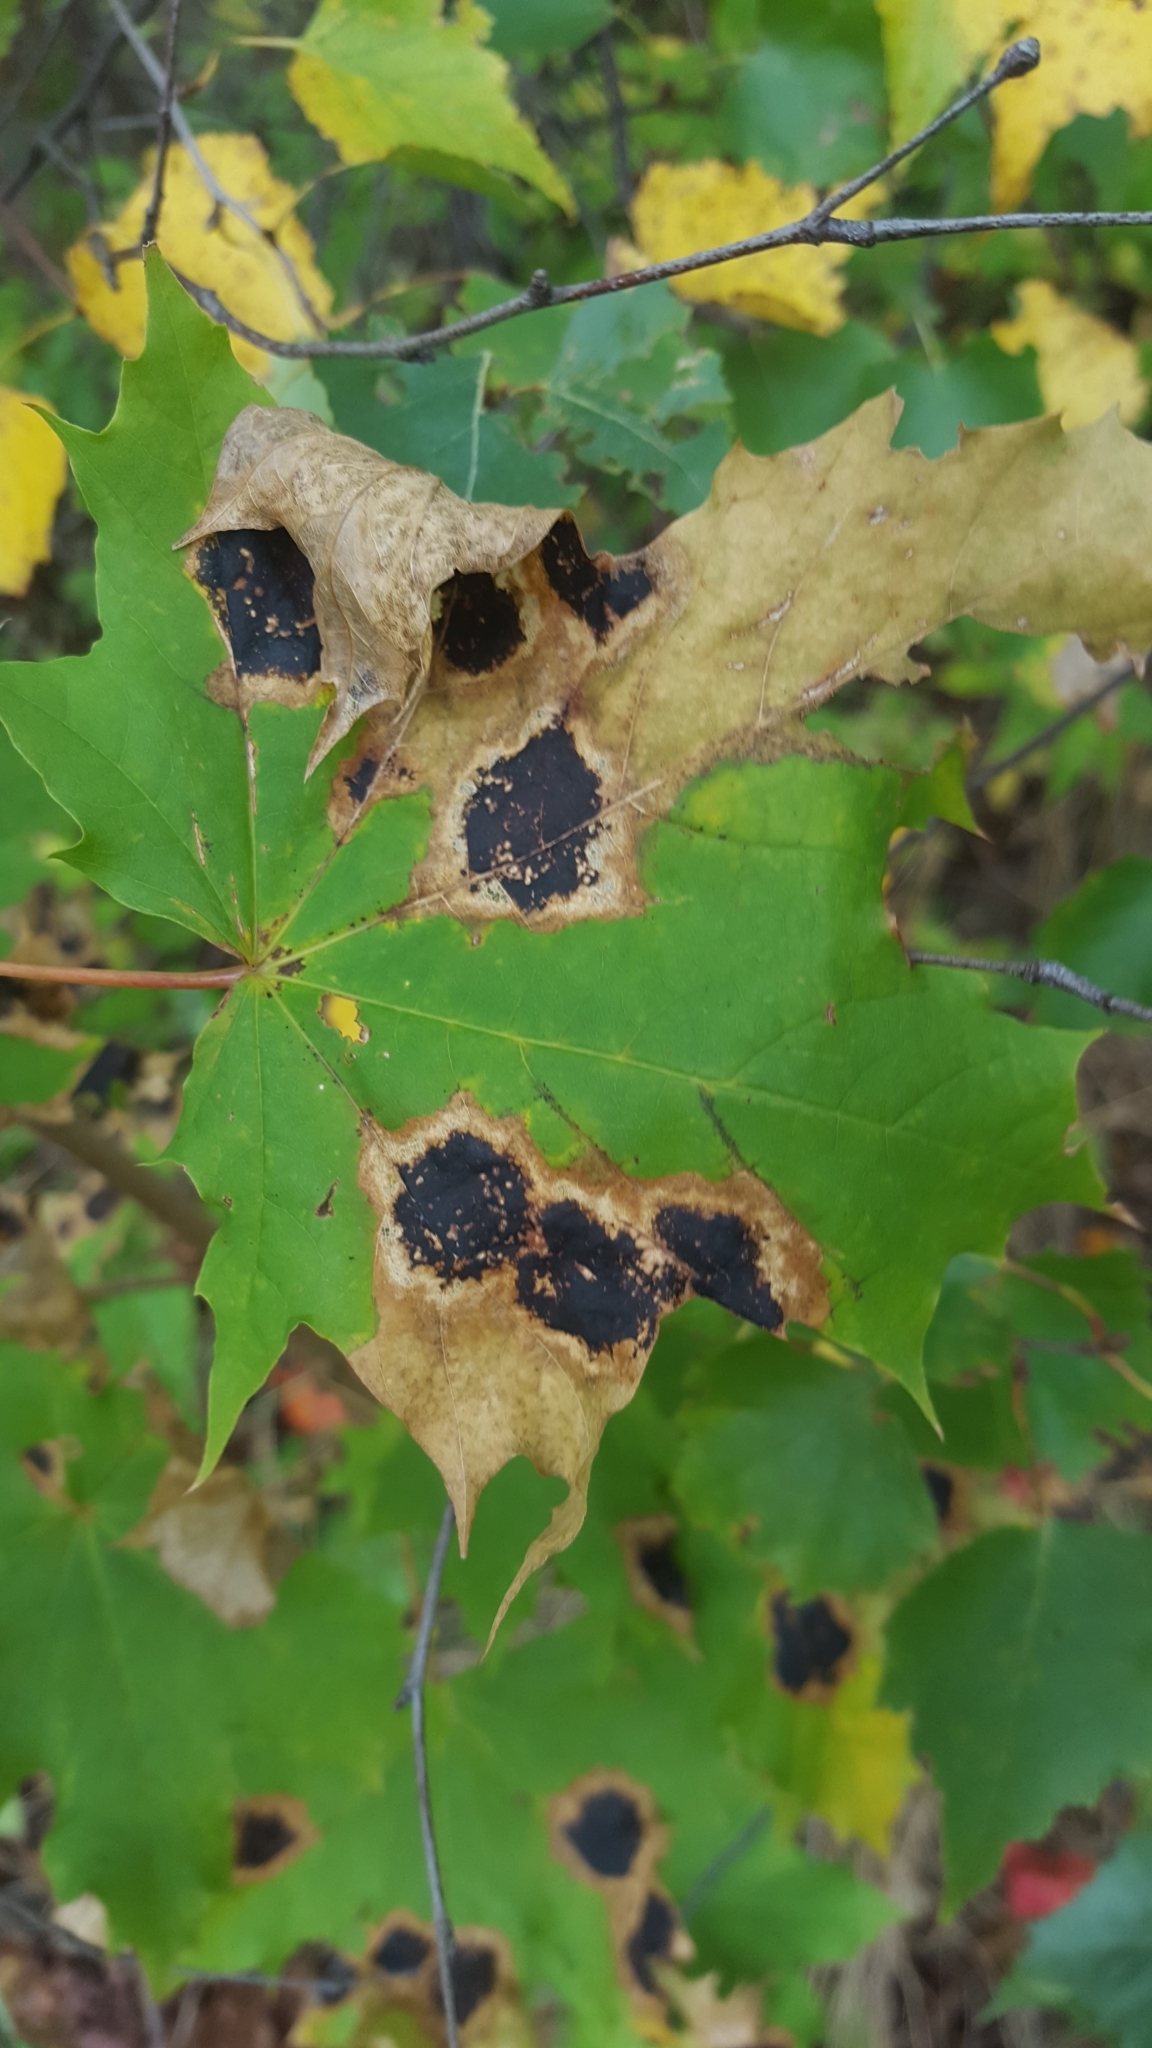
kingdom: Fungi
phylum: Ascomycota
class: Leotiomycetes
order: Rhytismatales
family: Rhytismataceae
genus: Rhytisma
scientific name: Rhytisma acerinum
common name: European tar spot
